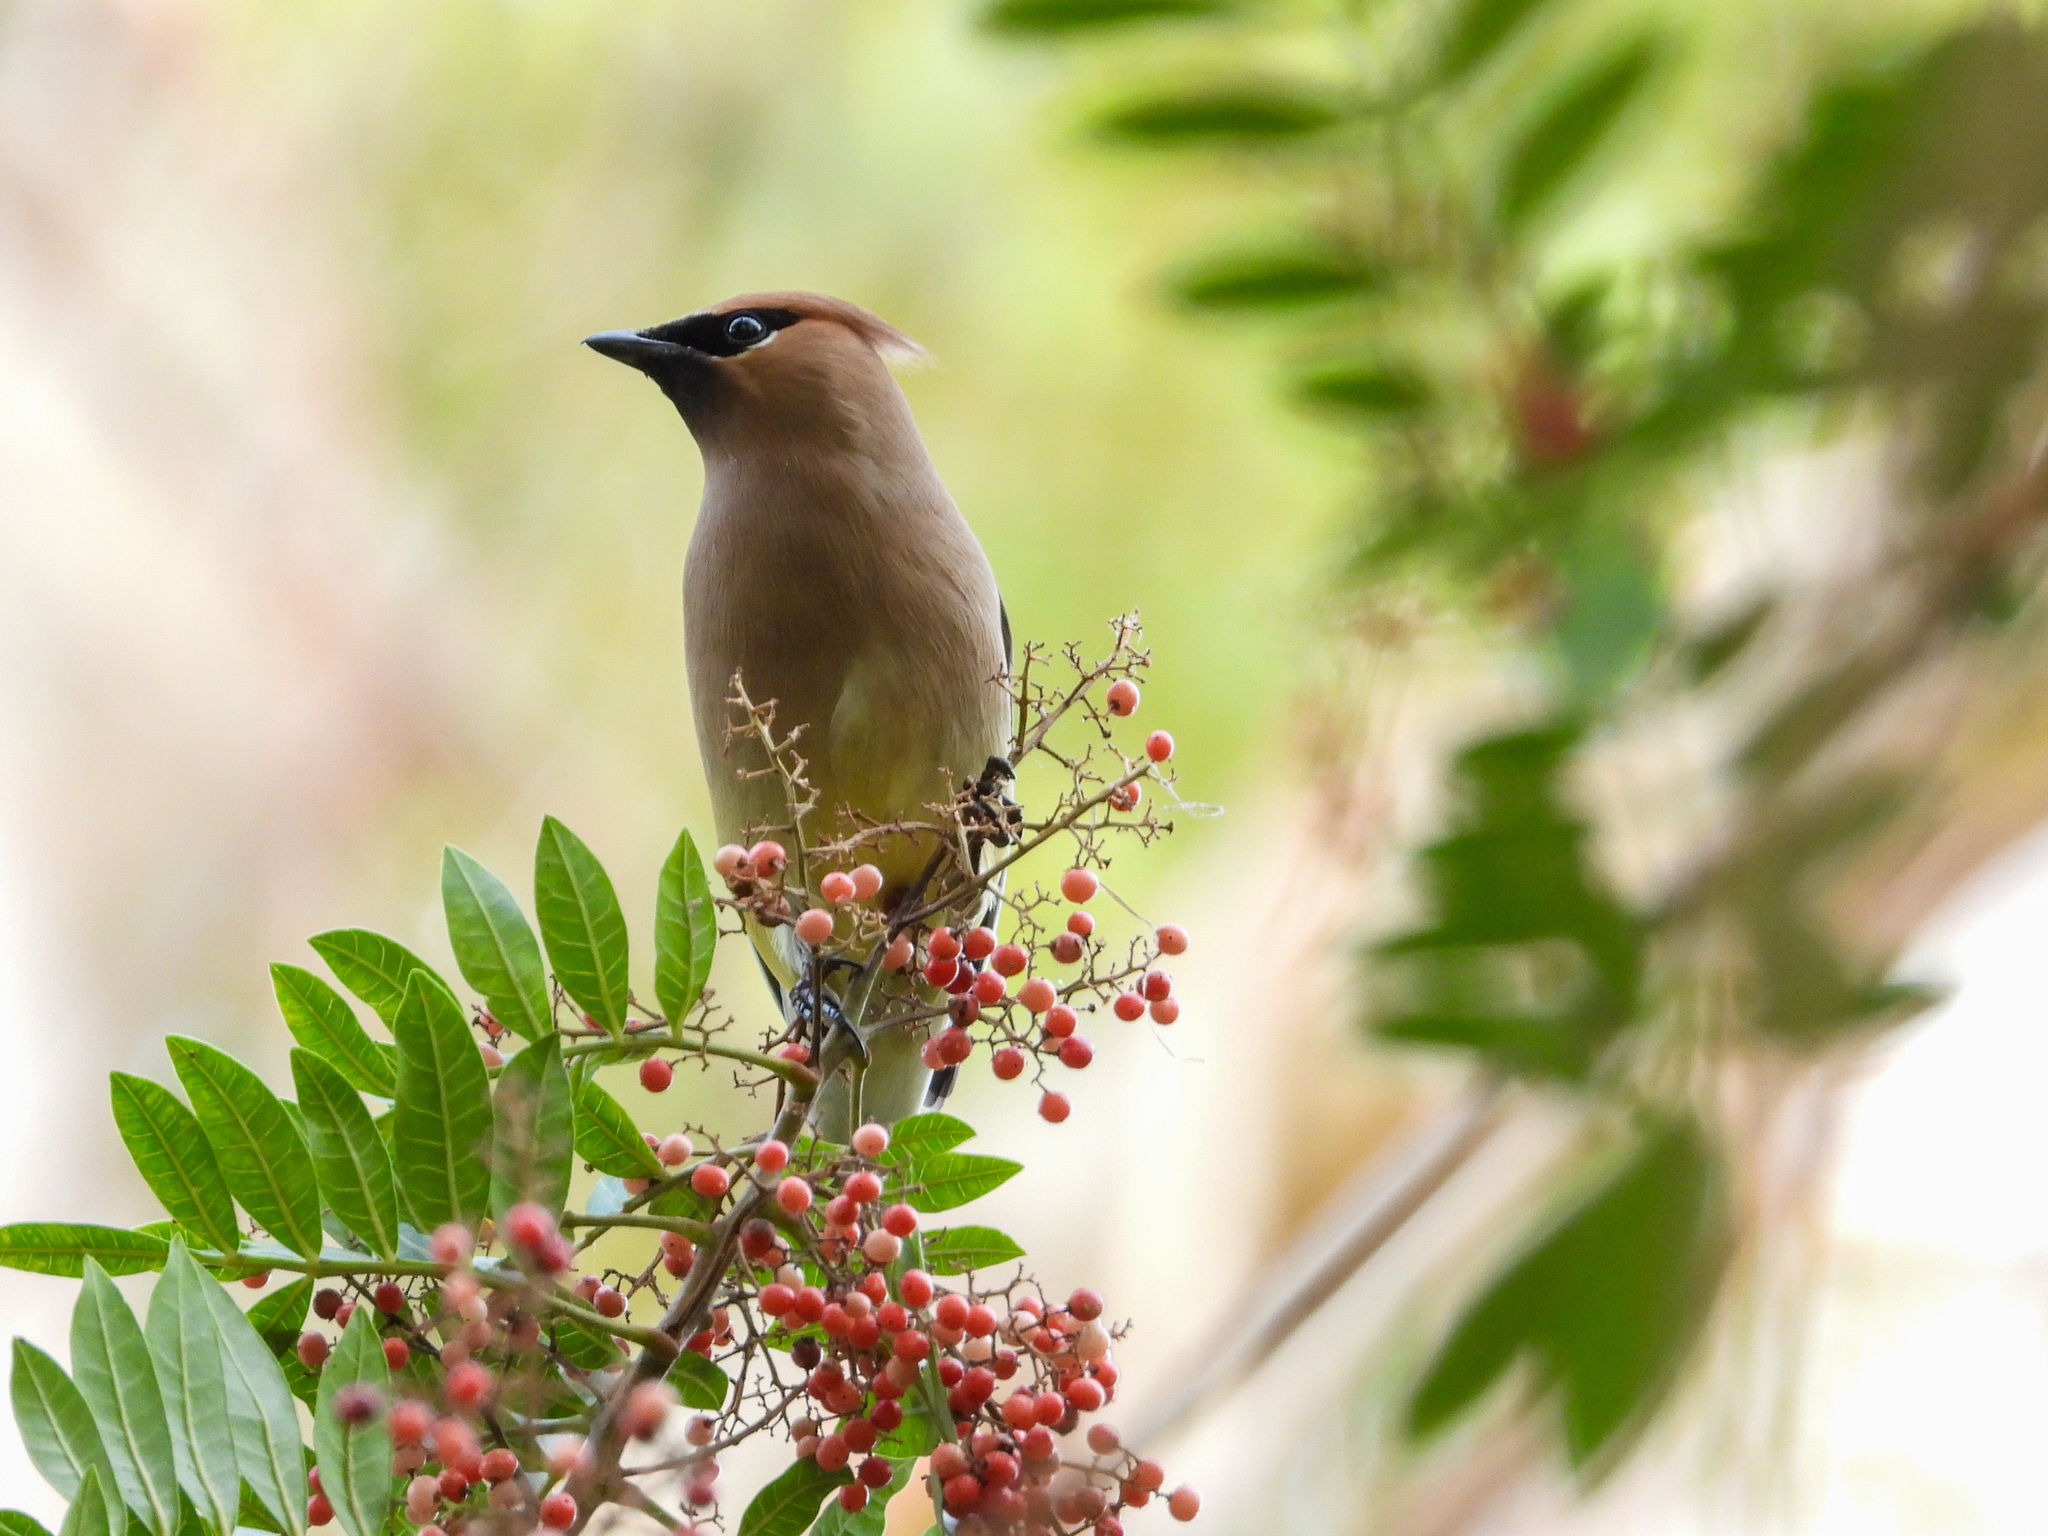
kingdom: Animalia
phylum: Chordata
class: Aves
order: Passeriformes
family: Bombycillidae
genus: Bombycilla
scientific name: Bombycilla cedrorum
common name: Cedar waxwing
